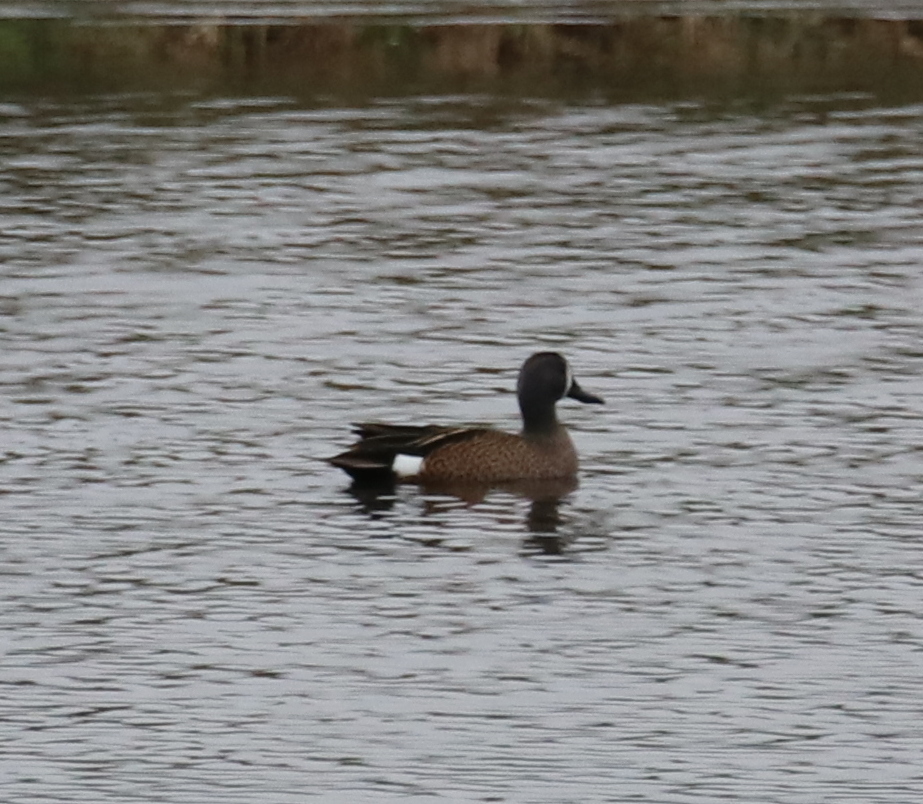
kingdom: Animalia
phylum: Chordata
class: Aves
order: Anseriformes
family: Anatidae
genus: Spatula
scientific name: Spatula discors
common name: Blue-winged teal
